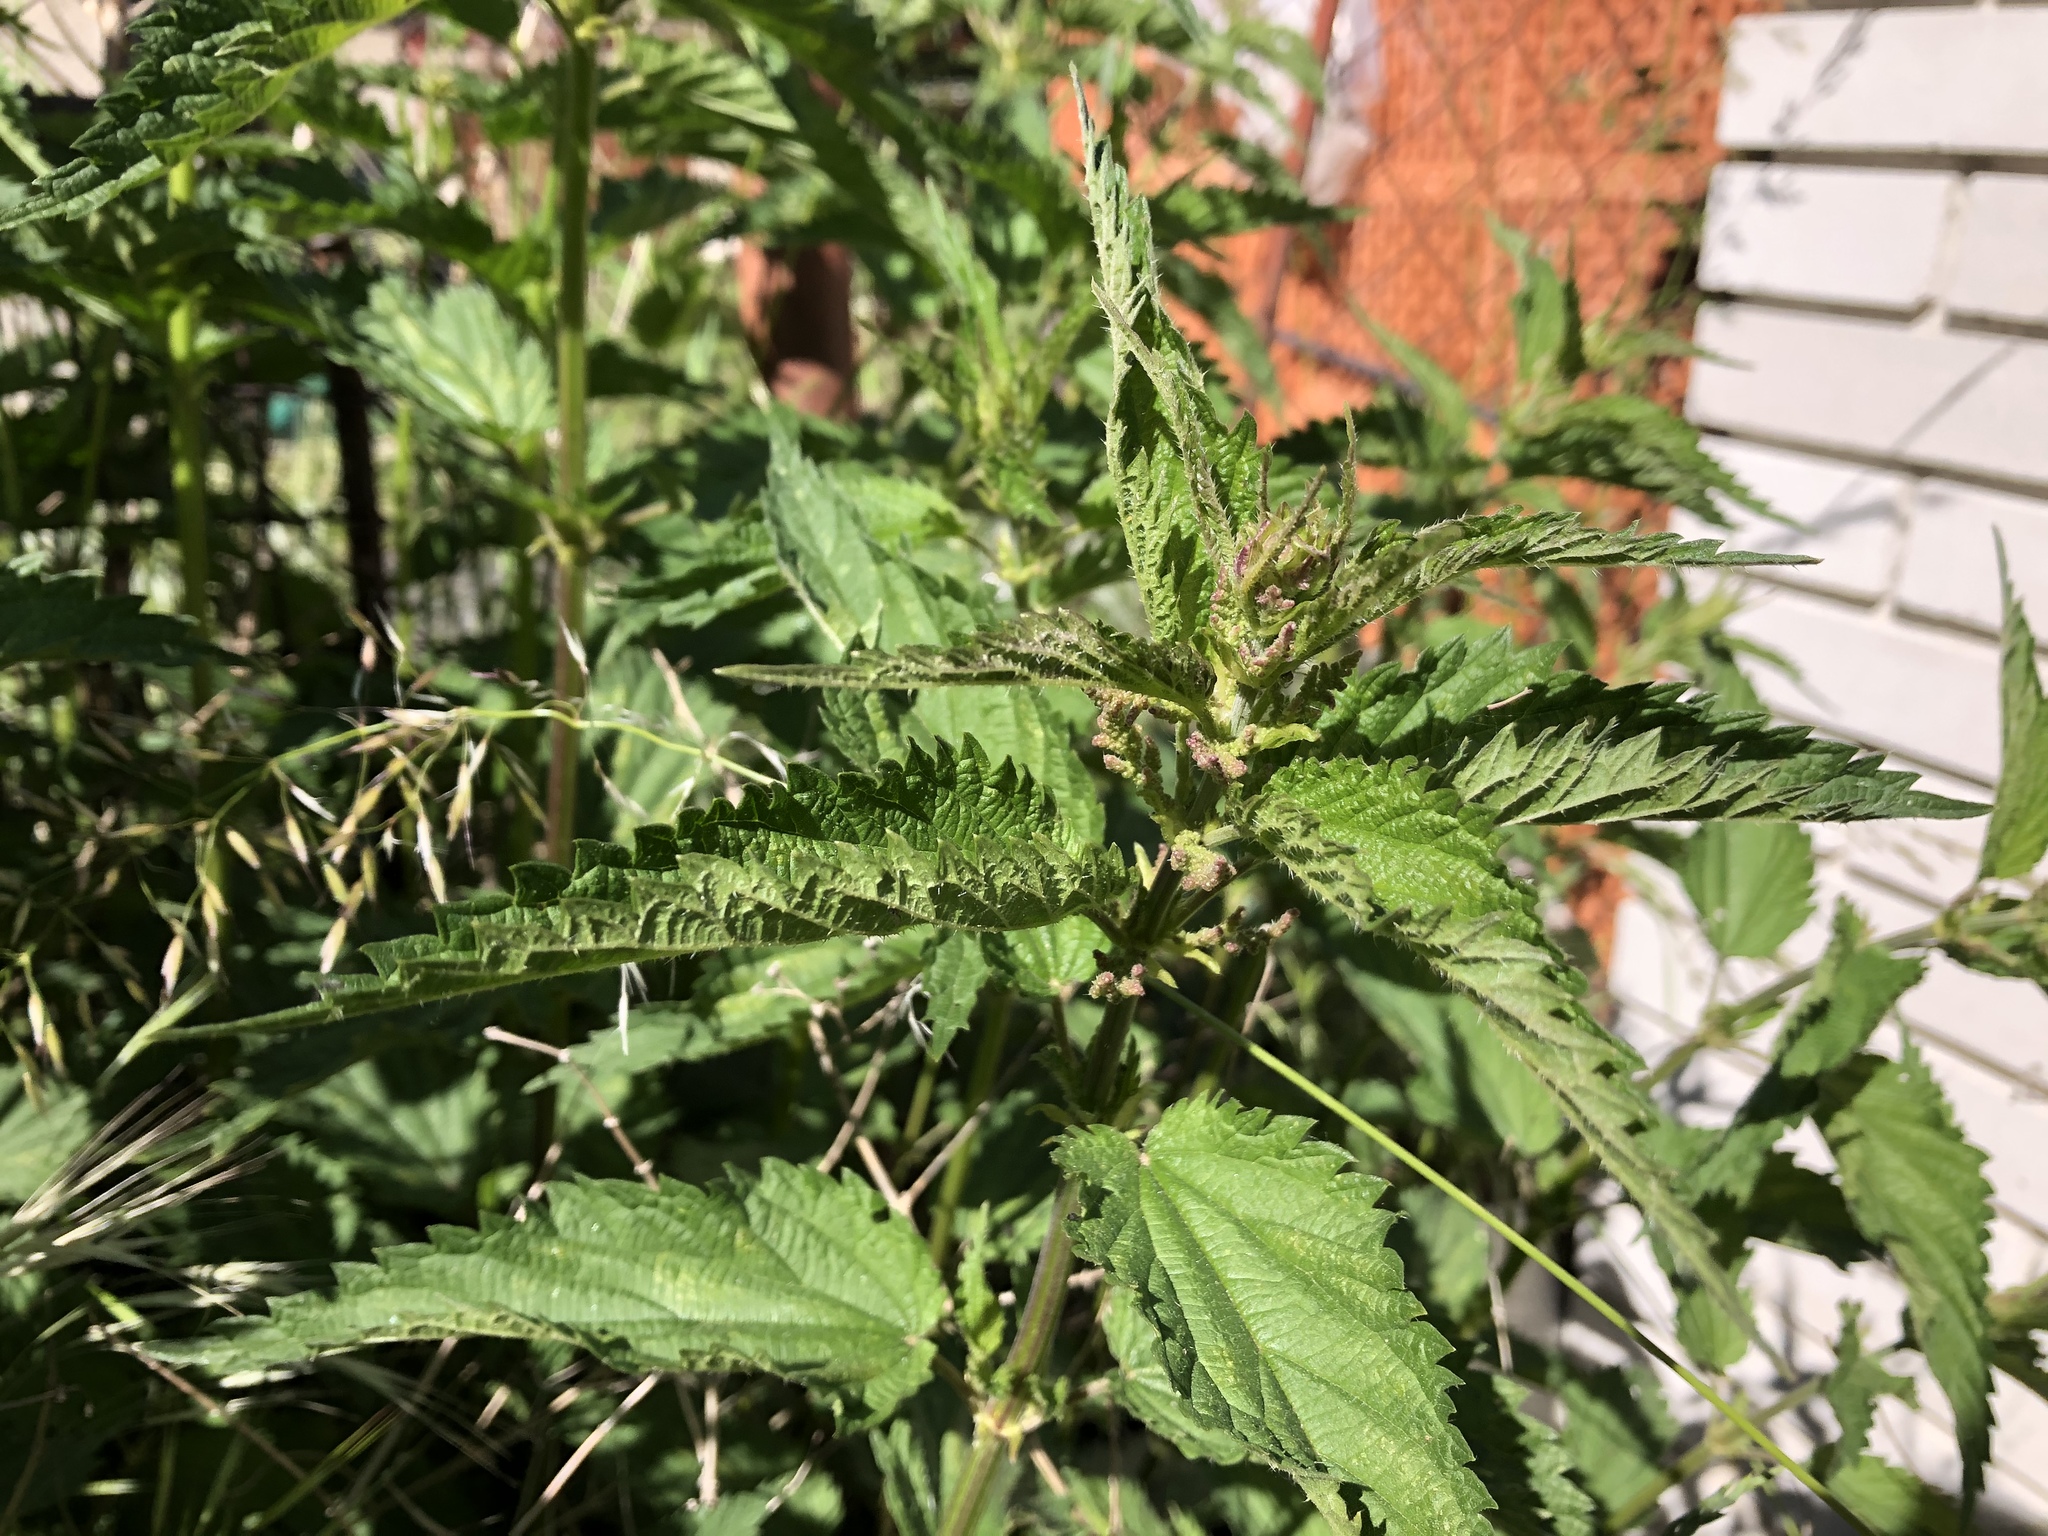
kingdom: Plantae
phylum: Tracheophyta
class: Magnoliopsida
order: Rosales
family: Urticaceae
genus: Urtica
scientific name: Urtica dioica
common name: Common nettle
